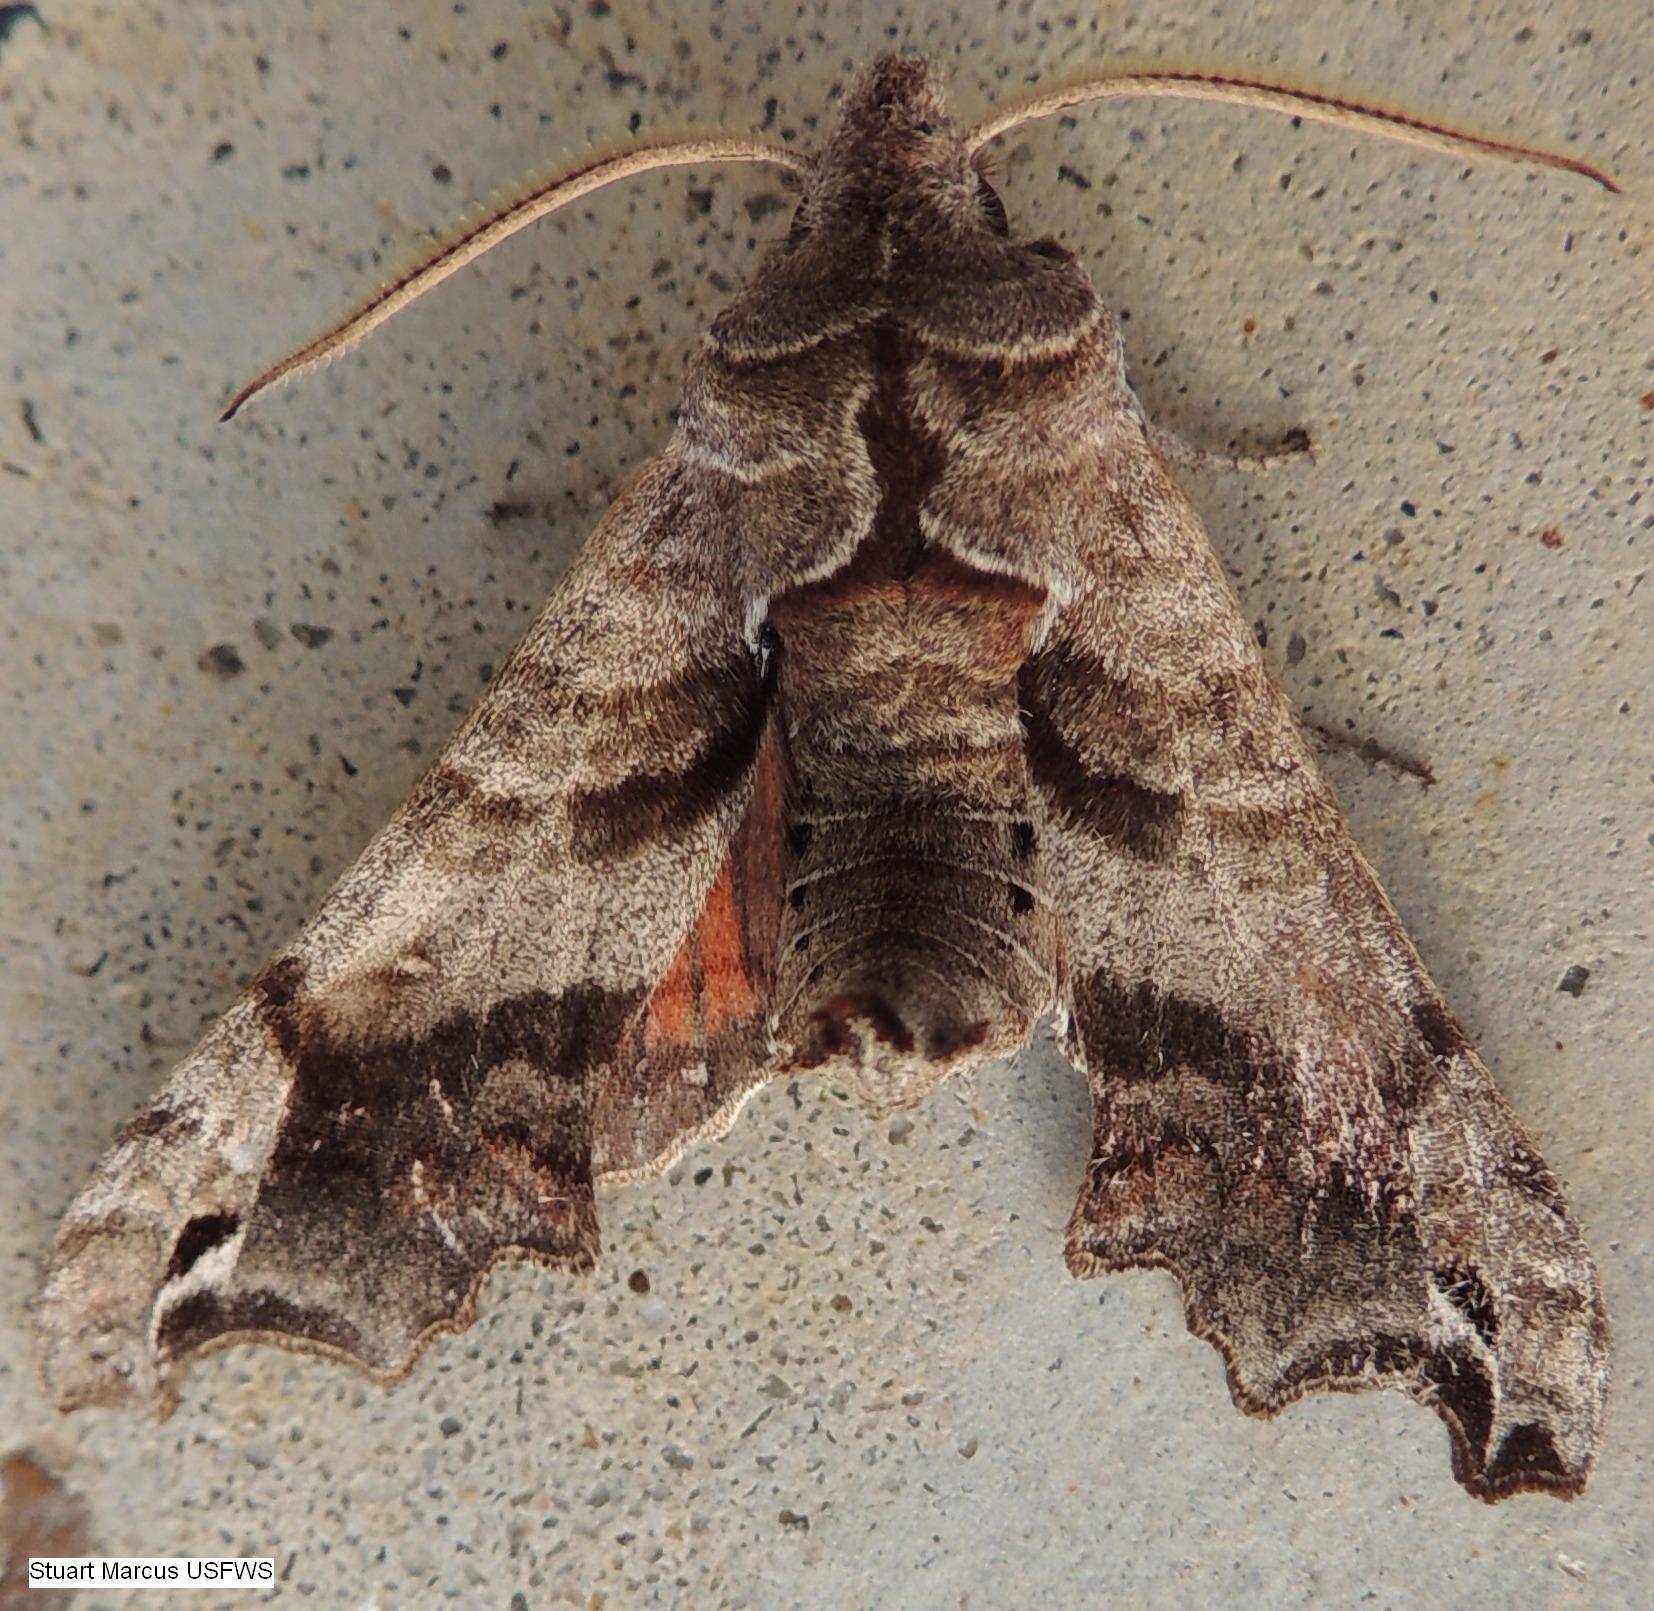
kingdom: Animalia
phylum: Arthropoda
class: Insecta
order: Lepidoptera
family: Sphingidae
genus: Deidamia
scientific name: Deidamia inscriptum
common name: Lettered sphinx
